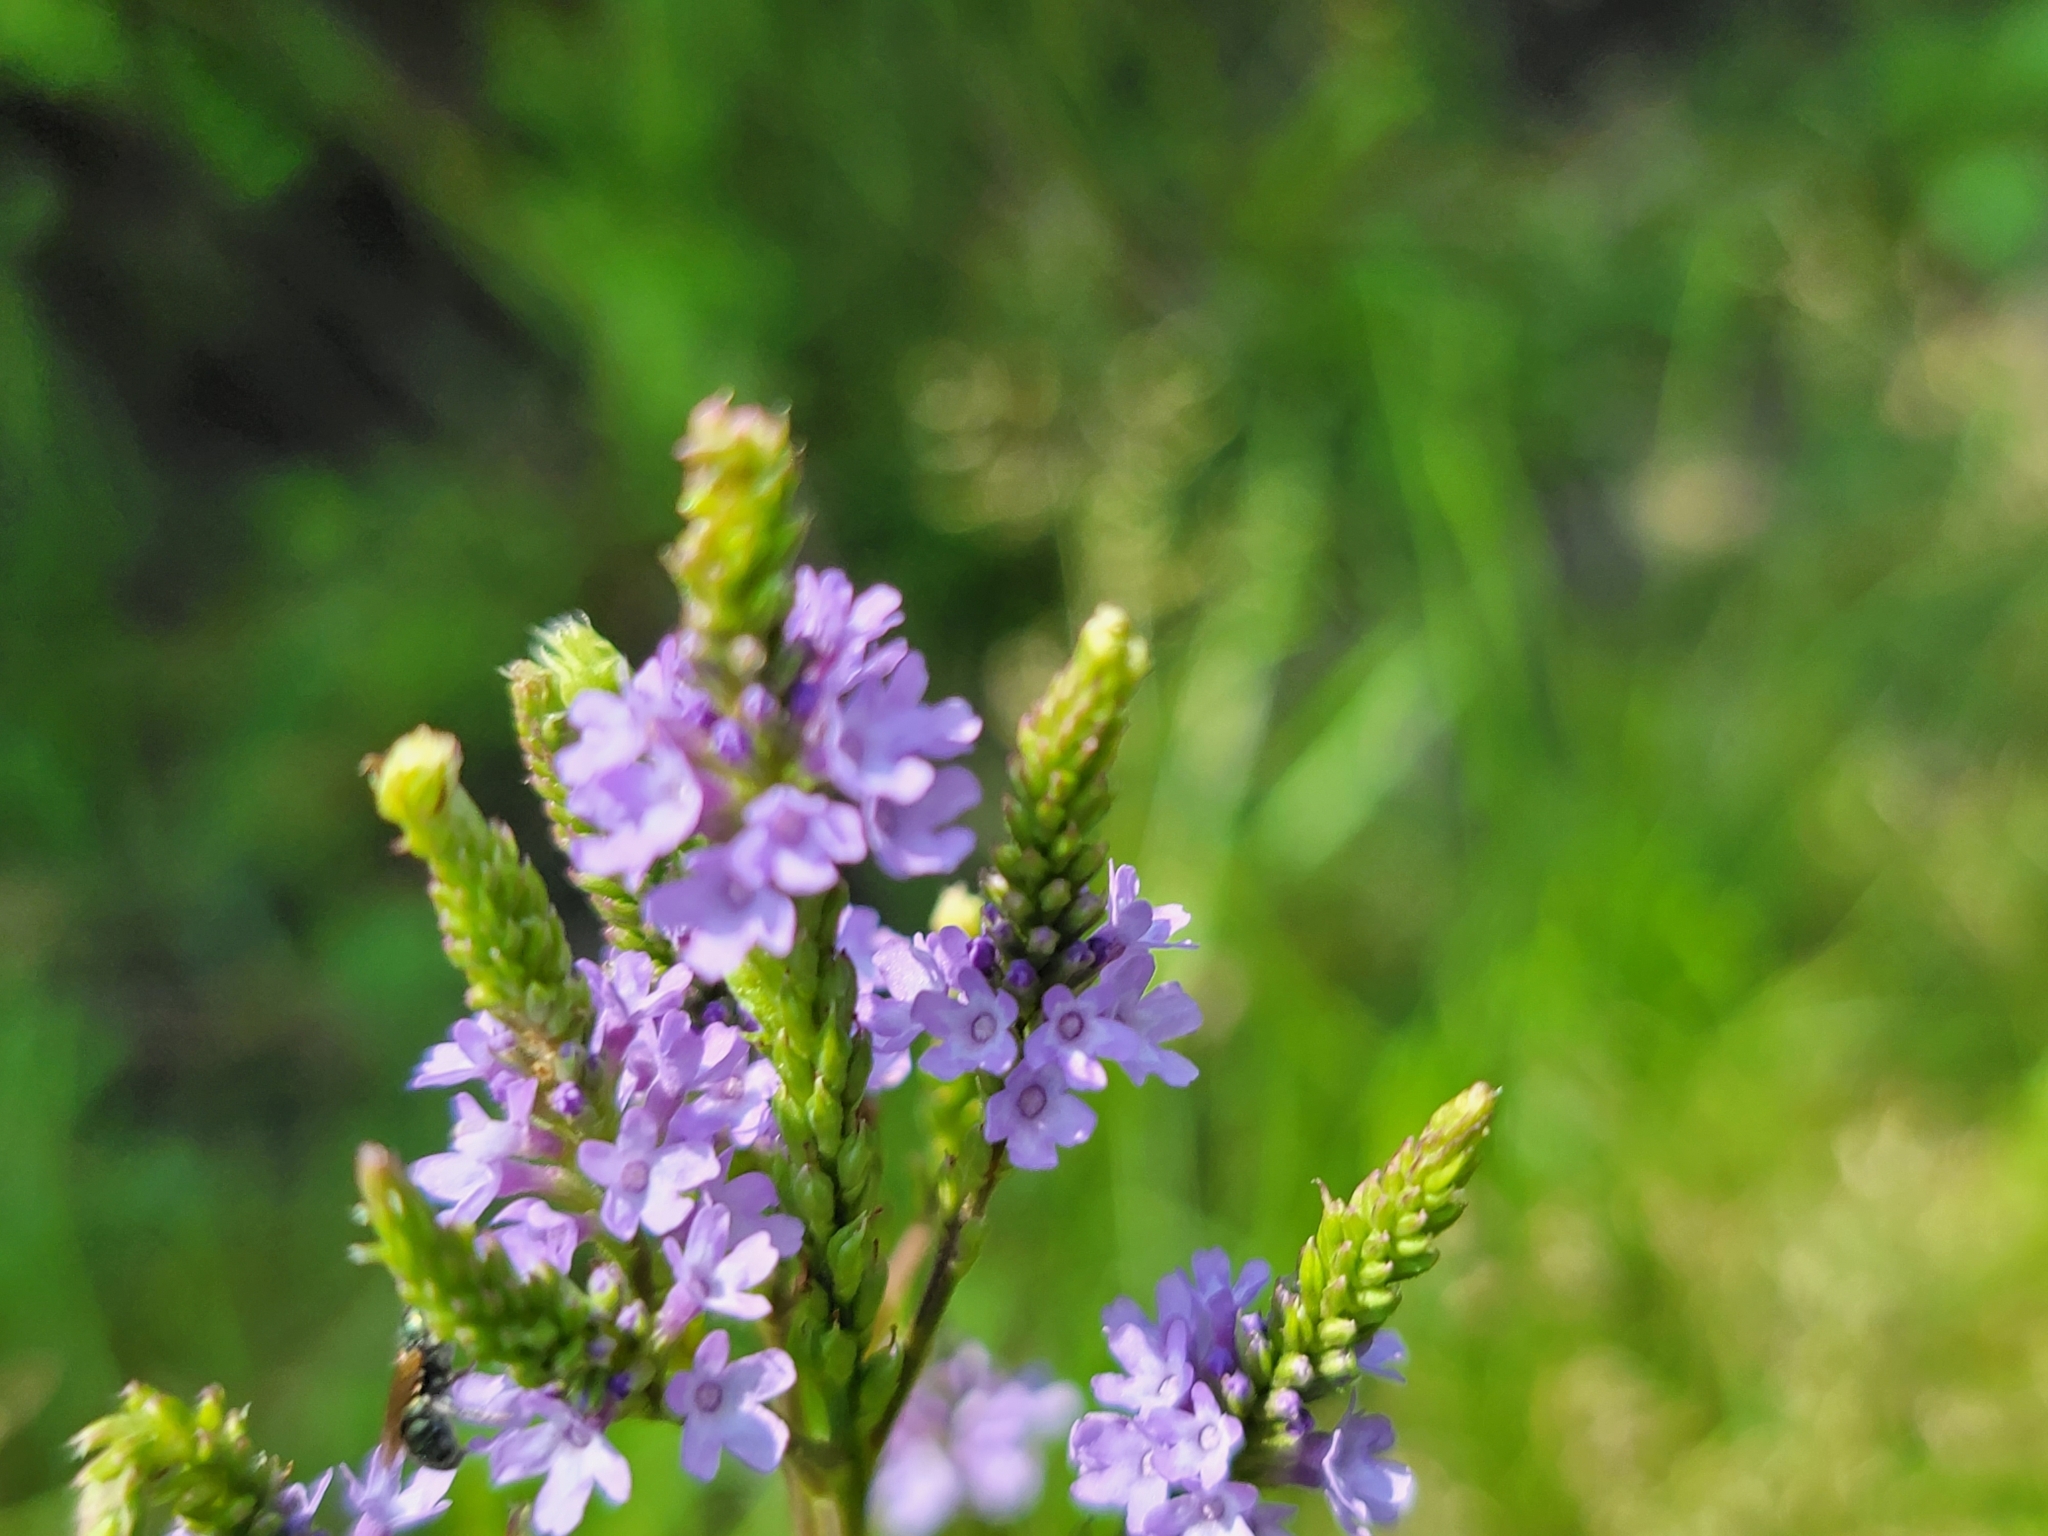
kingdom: Plantae
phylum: Tracheophyta
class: Magnoliopsida
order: Lamiales
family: Verbenaceae
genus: Verbena
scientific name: Verbena hastata
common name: American blue vervain
